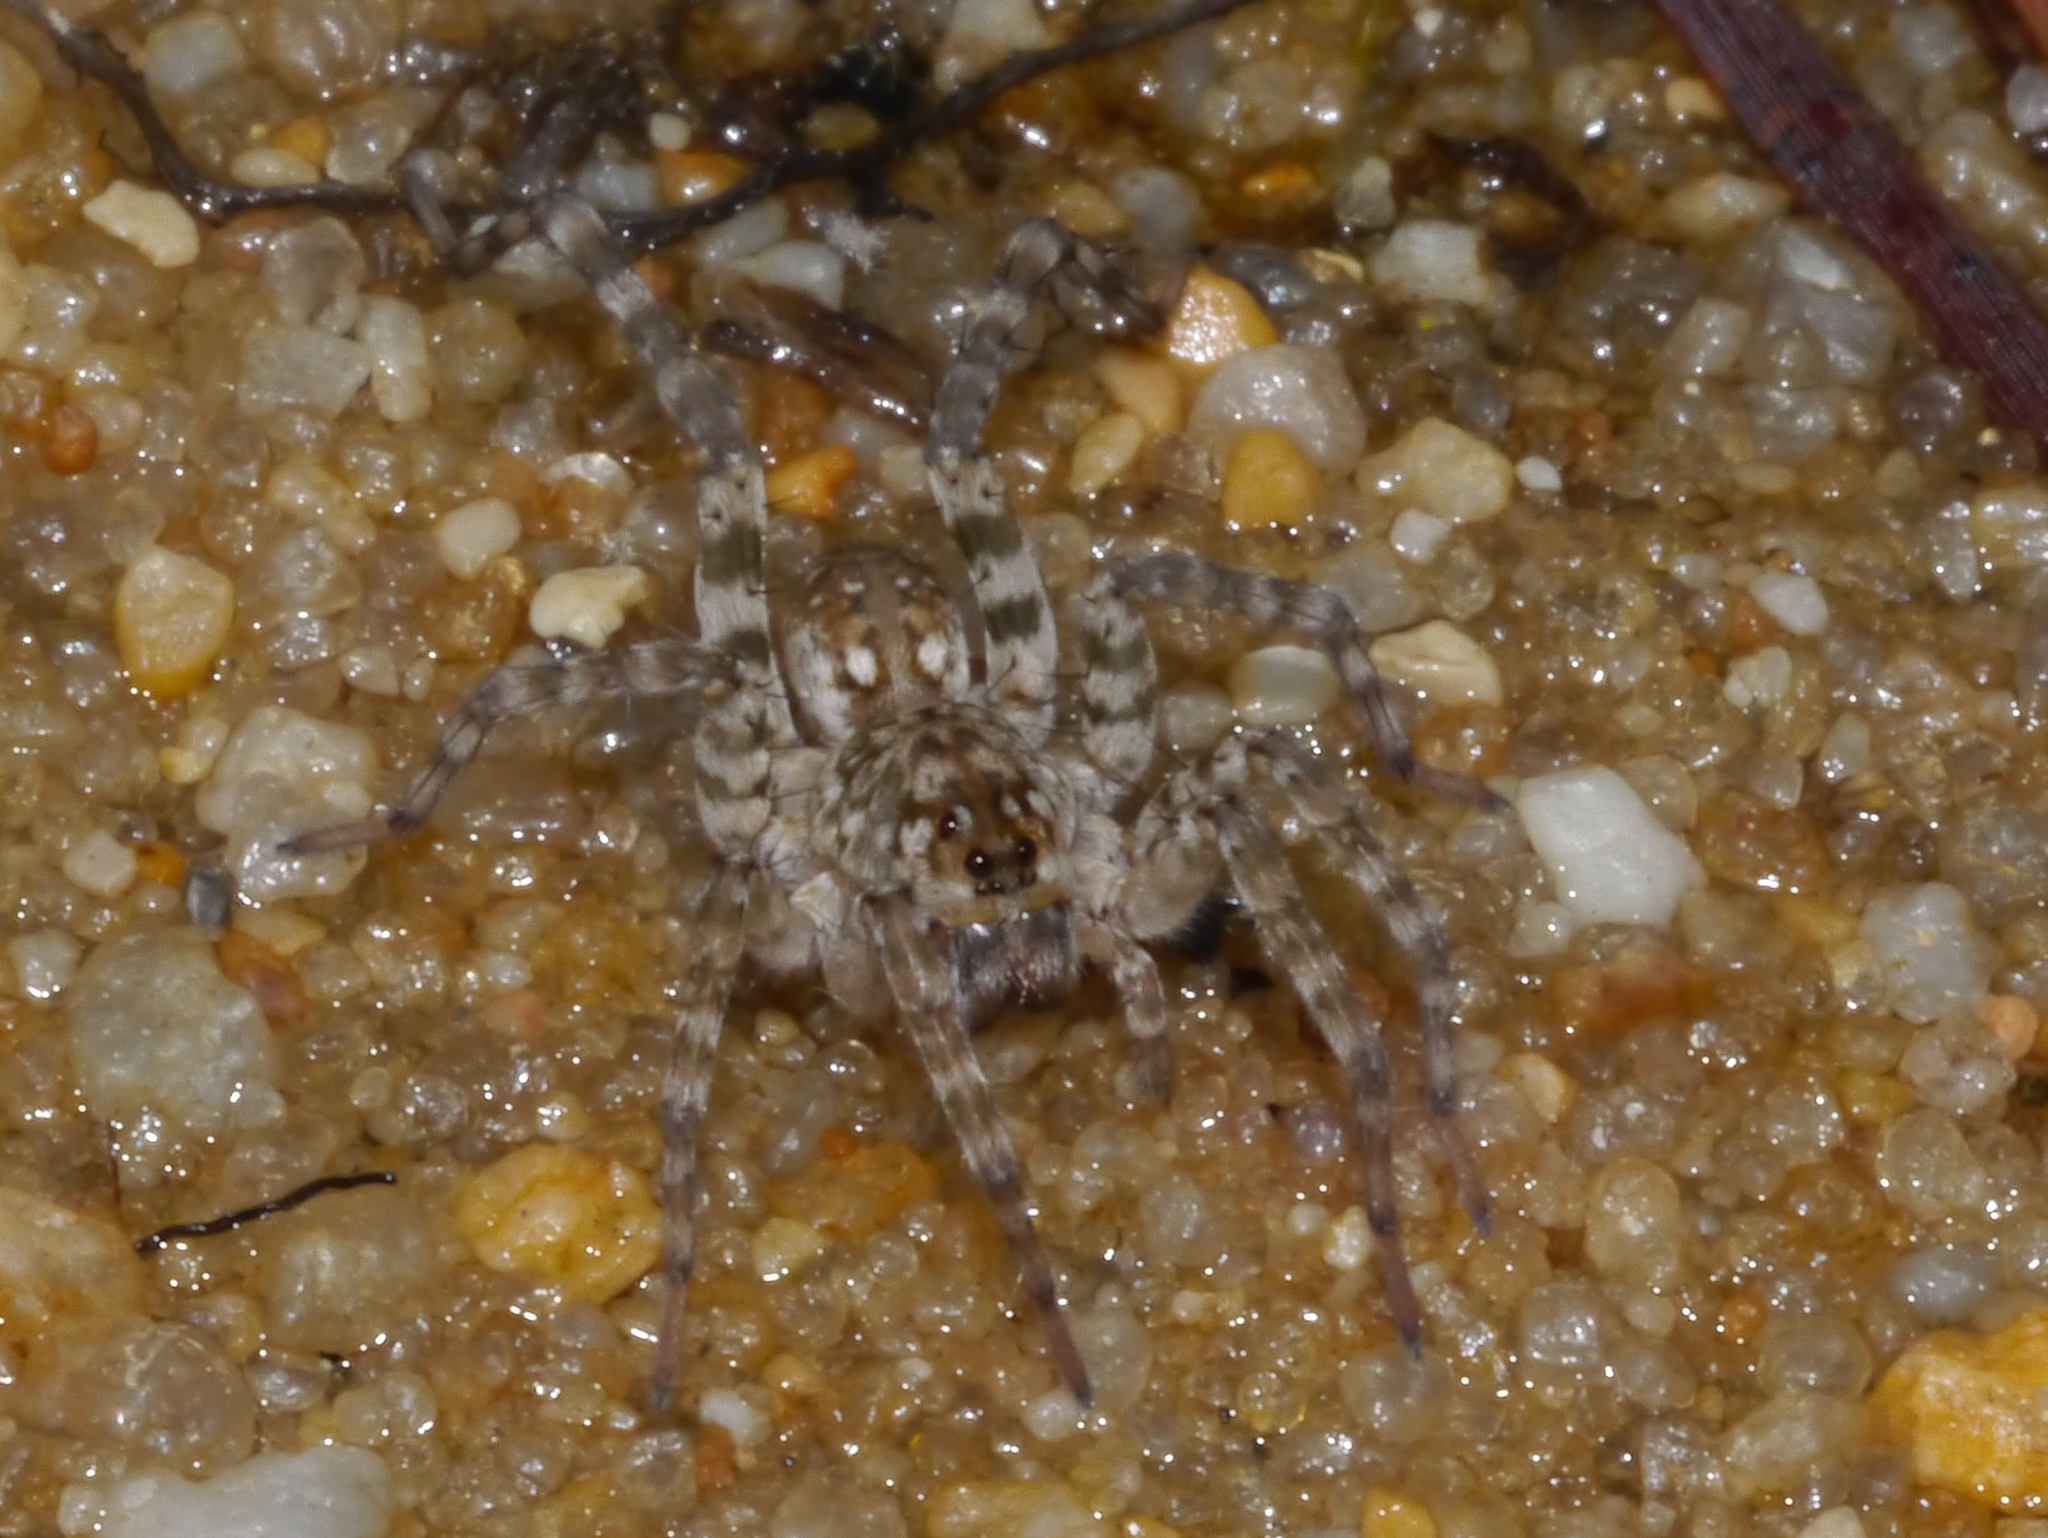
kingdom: Animalia
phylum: Arthropoda
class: Arachnida
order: Araneae
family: Lycosidae
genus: Arctosa
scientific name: Arctosa littoralis
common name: Wolf spiders
